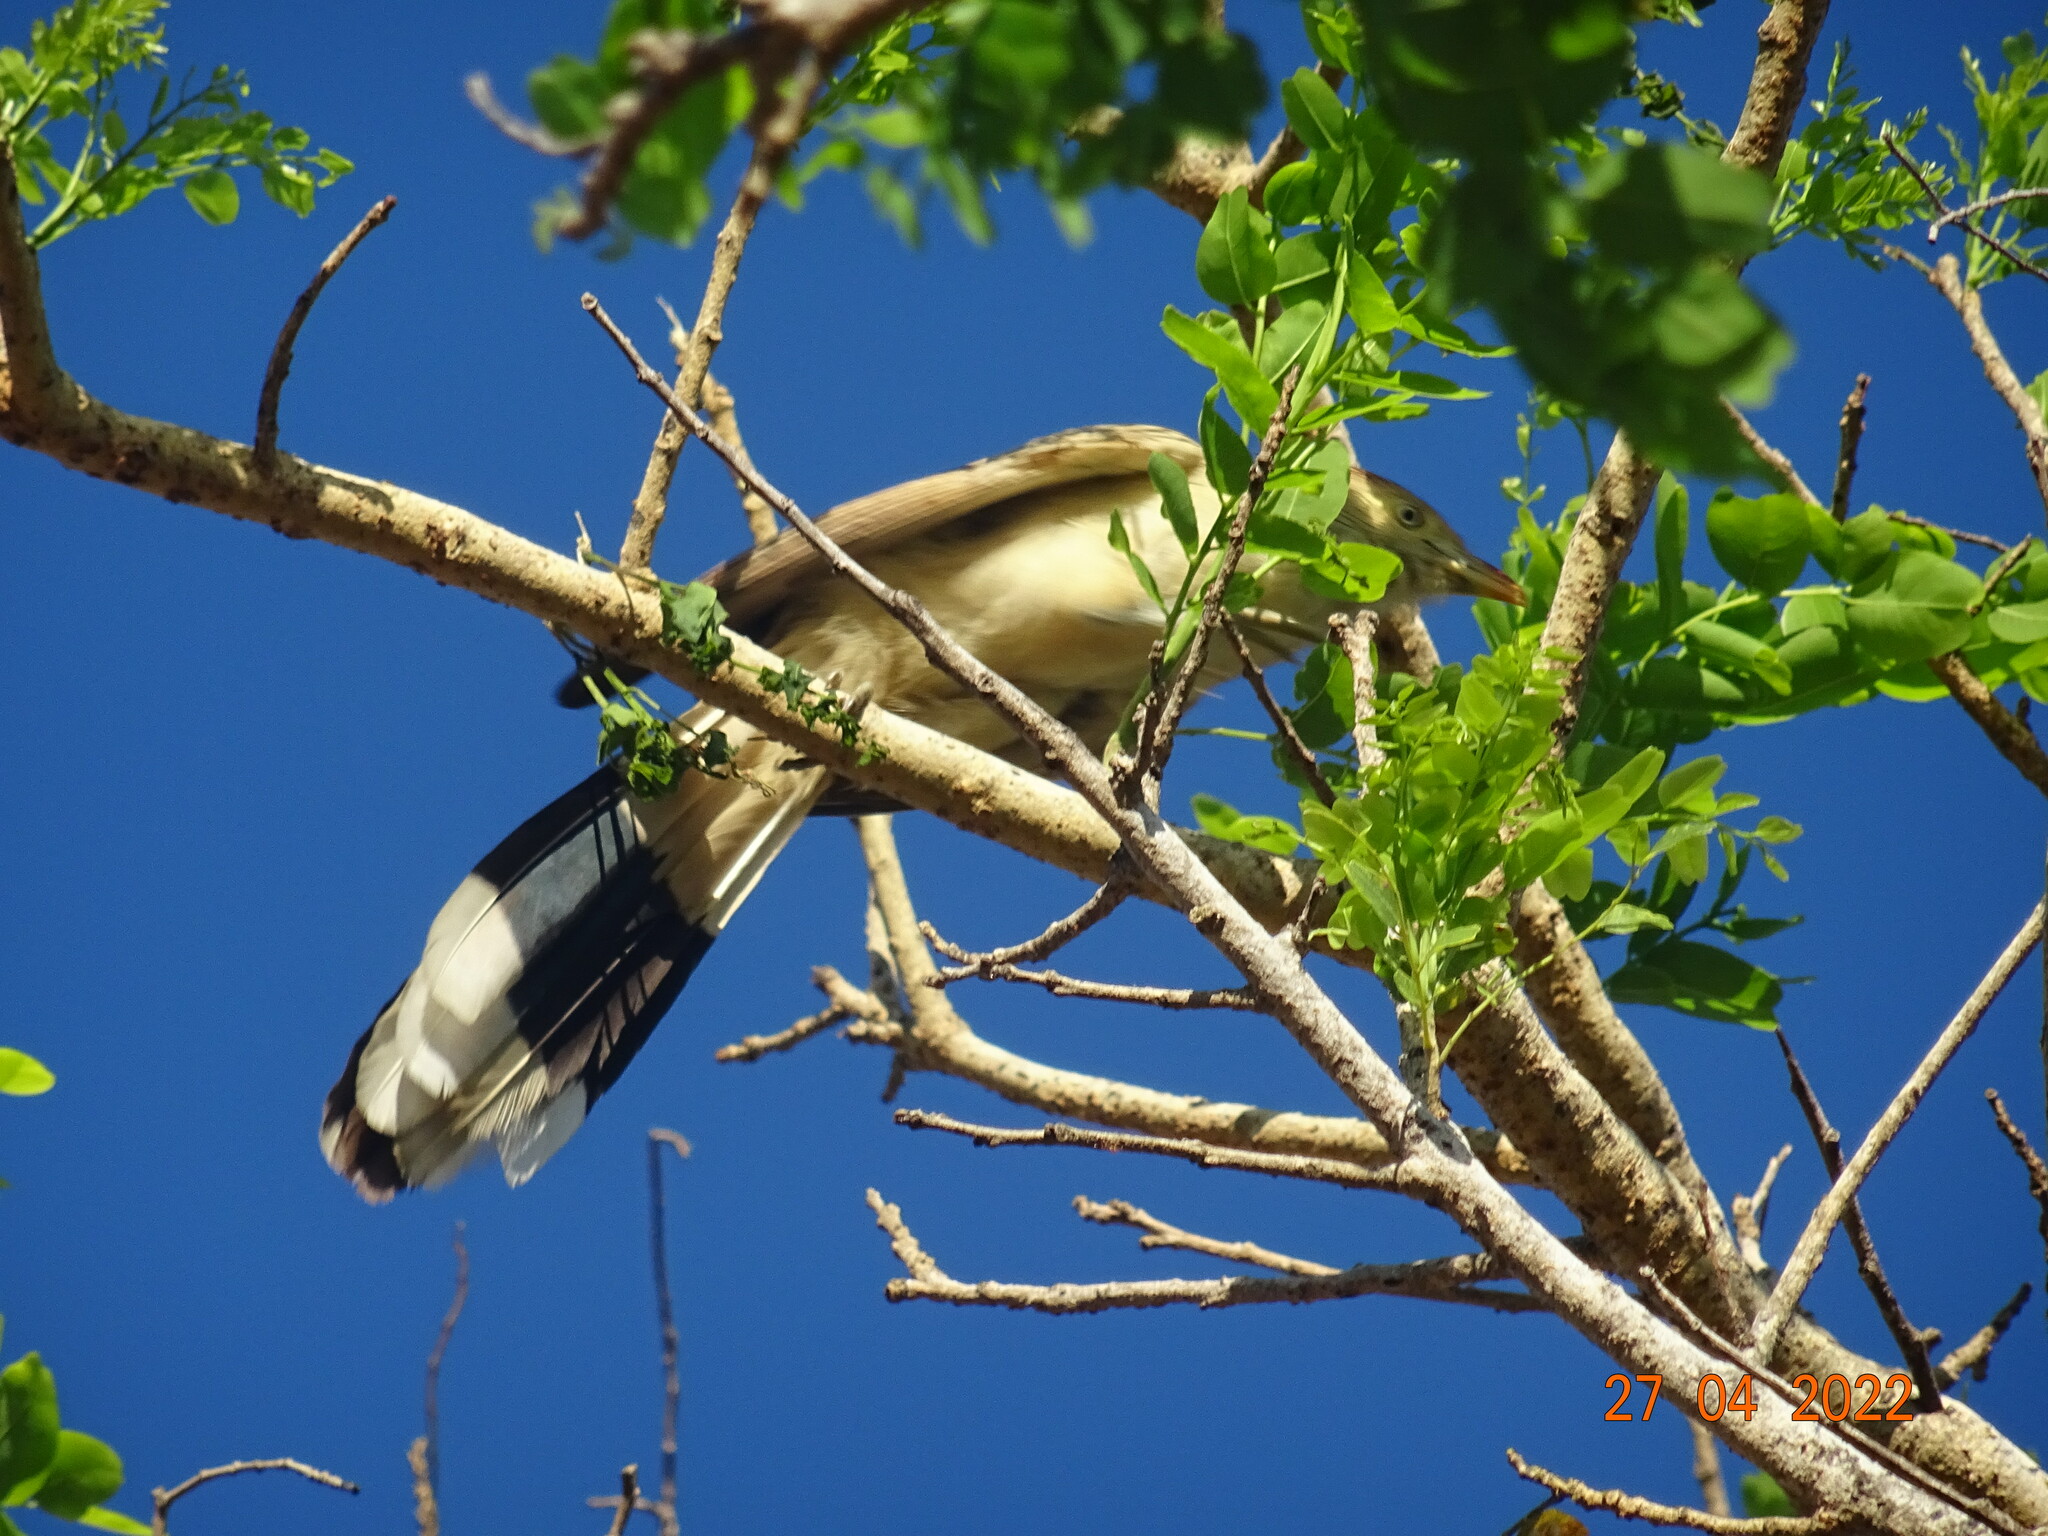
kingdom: Animalia
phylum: Chordata
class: Aves
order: Cuculiformes
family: Cuculidae
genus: Guira
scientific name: Guira guira
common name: Guira cuckoo
